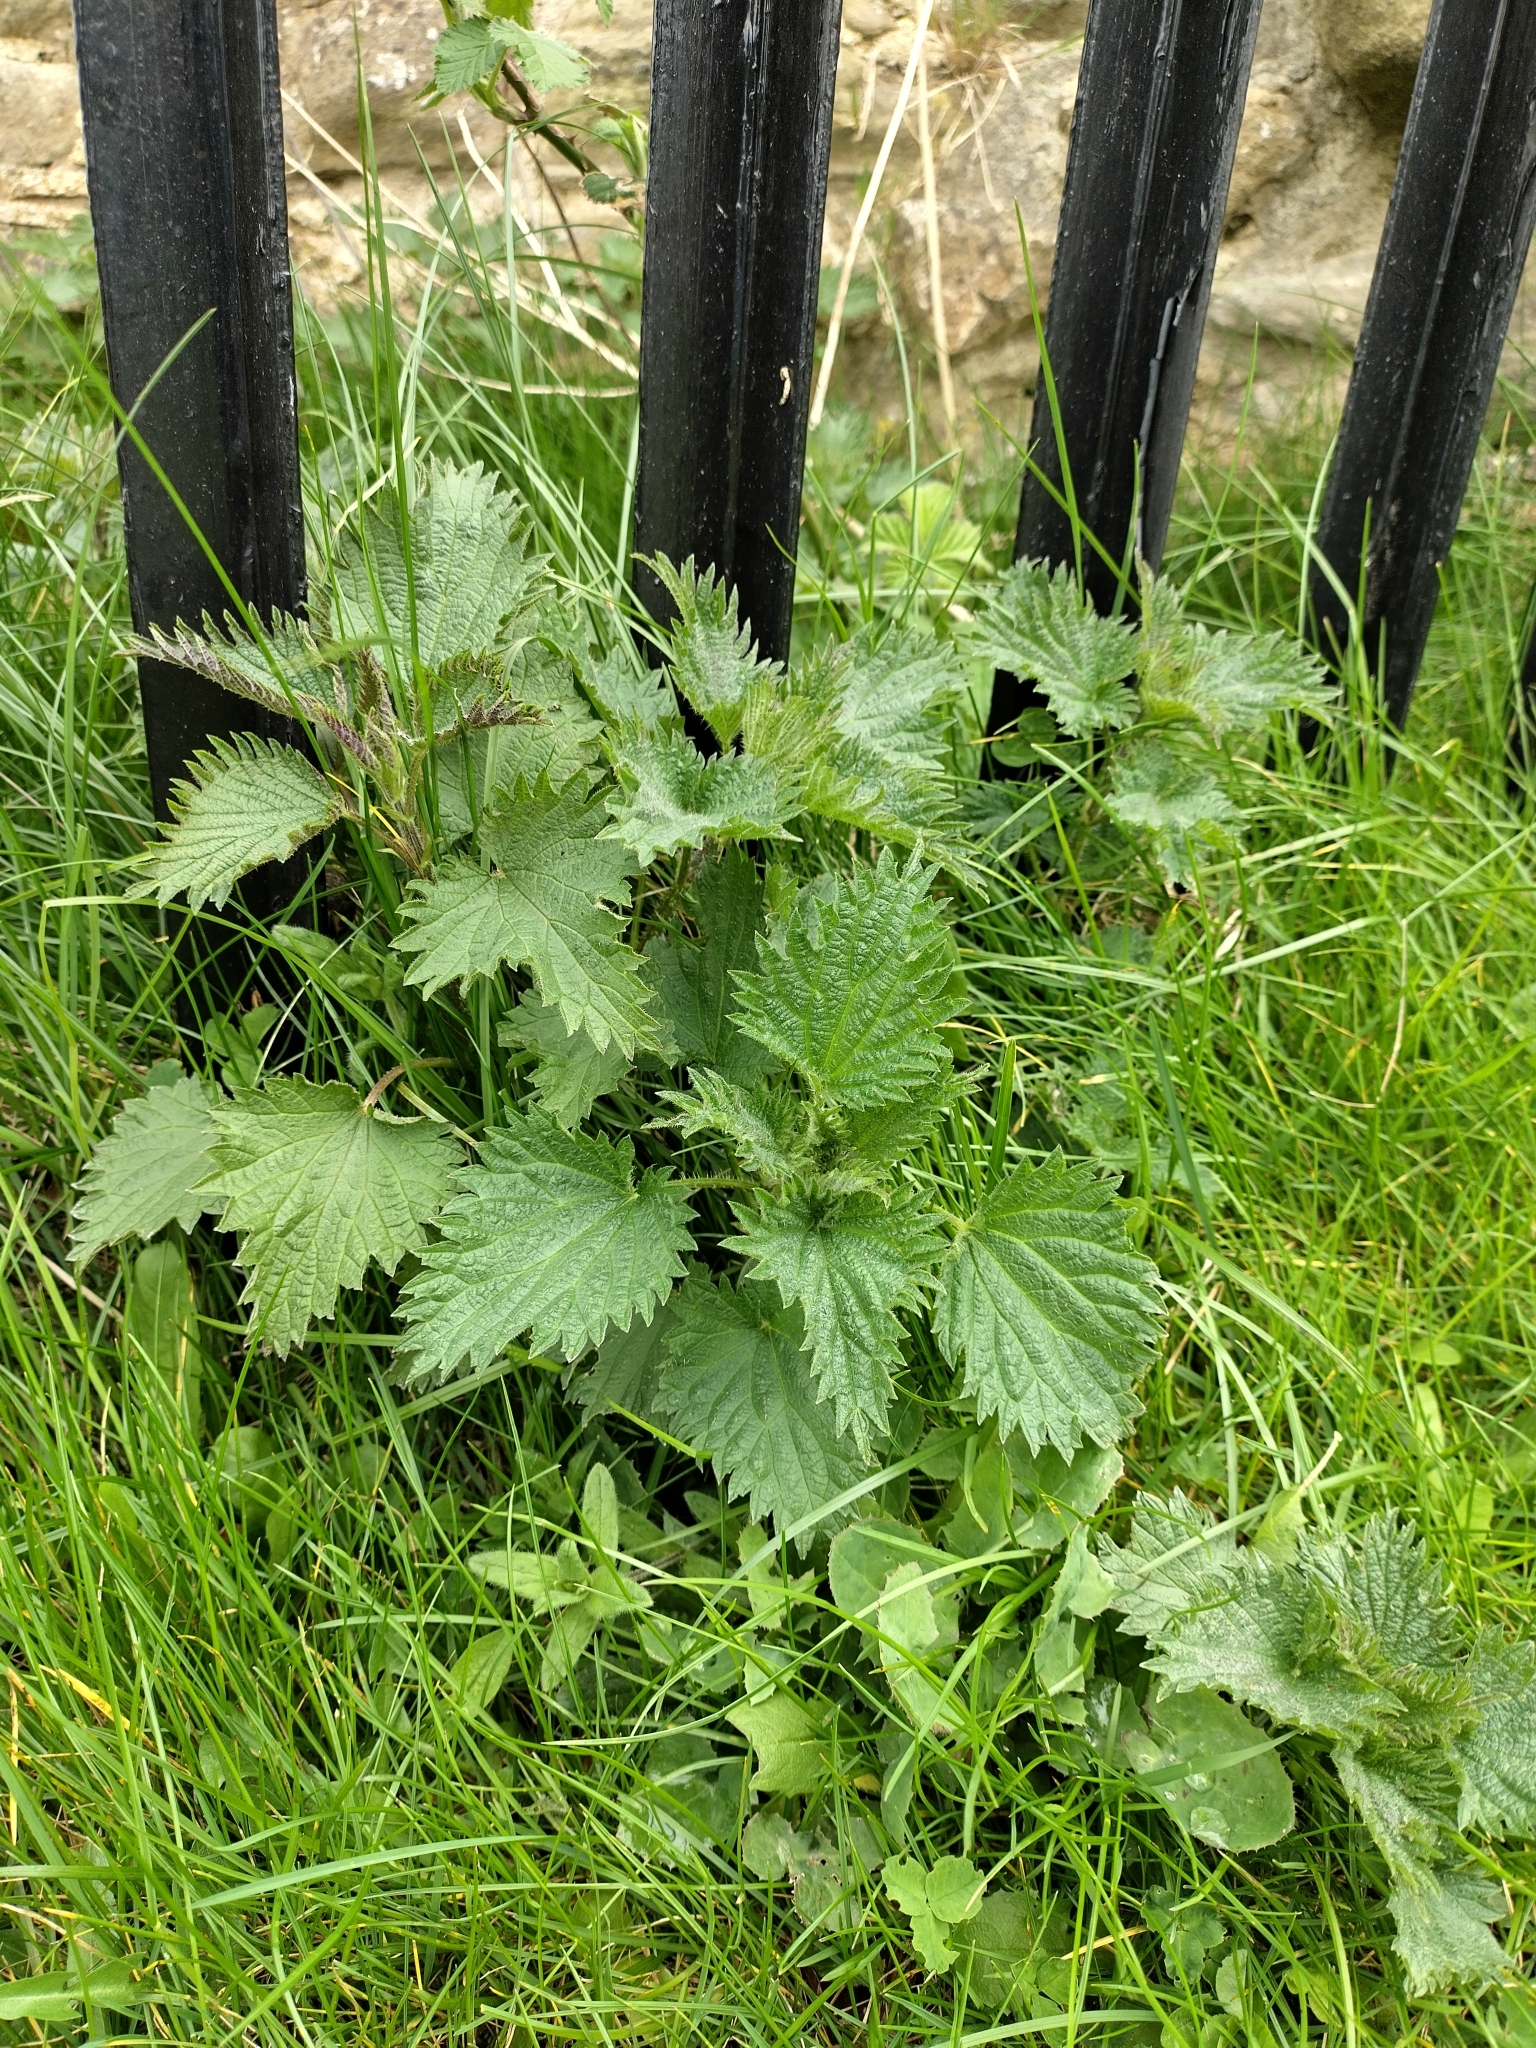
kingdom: Plantae
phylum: Tracheophyta
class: Magnoliopsida
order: Rosales
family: Urticaceae
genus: Urtica
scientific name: Urtica dioica
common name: Common nettle
